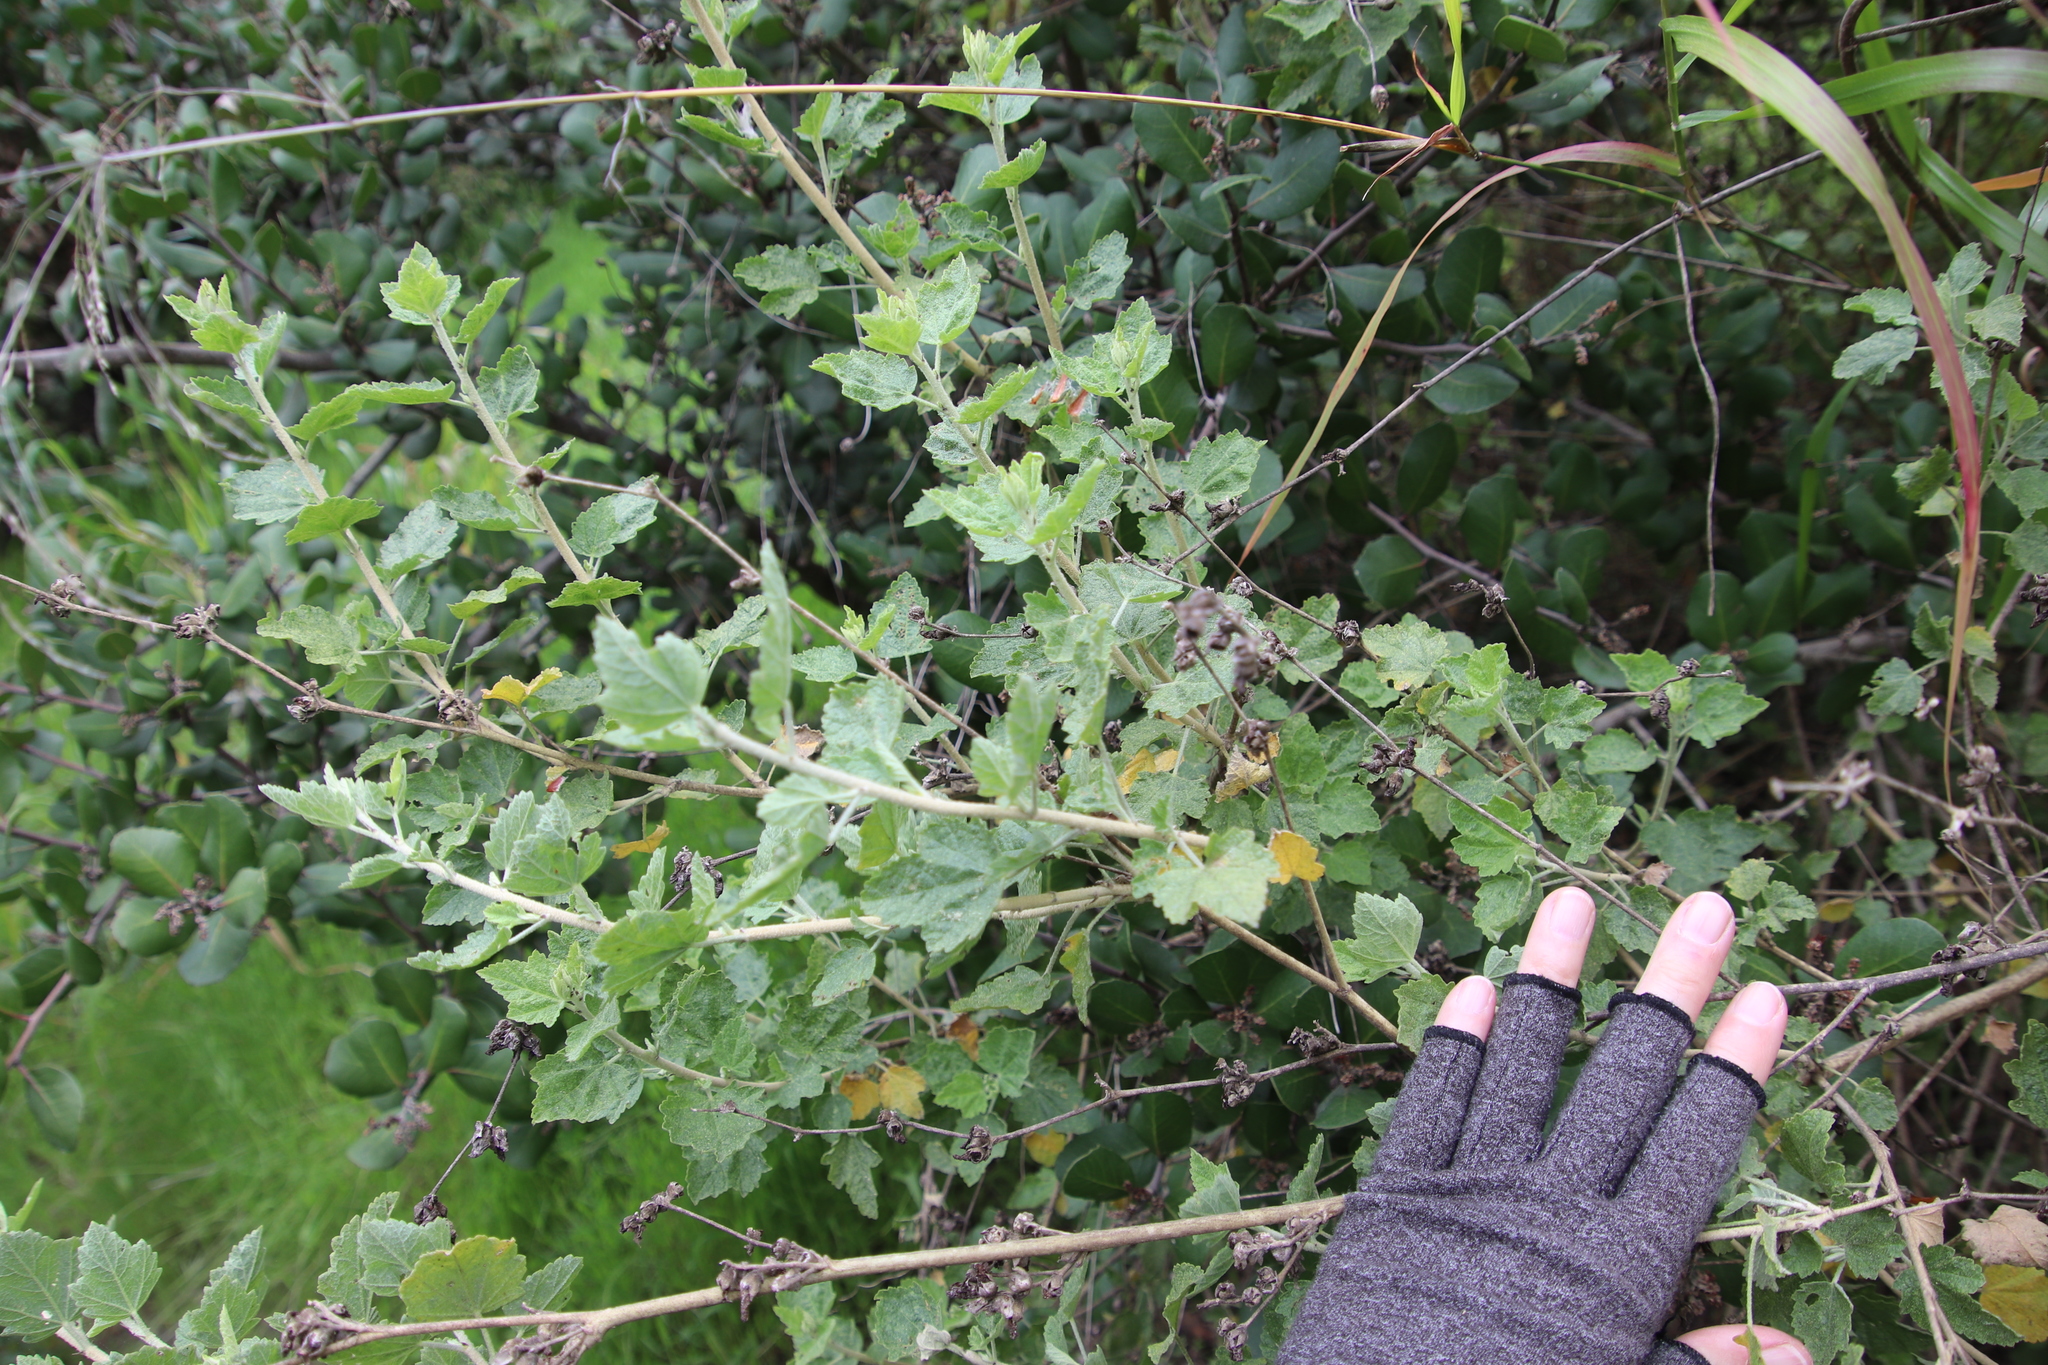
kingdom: Plantae
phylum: Tracheophyta
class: Magnoliopsida
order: Malvales
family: Malvaceae
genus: Malacothamnus
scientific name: Malacothamnus fasciculatus
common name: Sant cruz island bush-mallow
